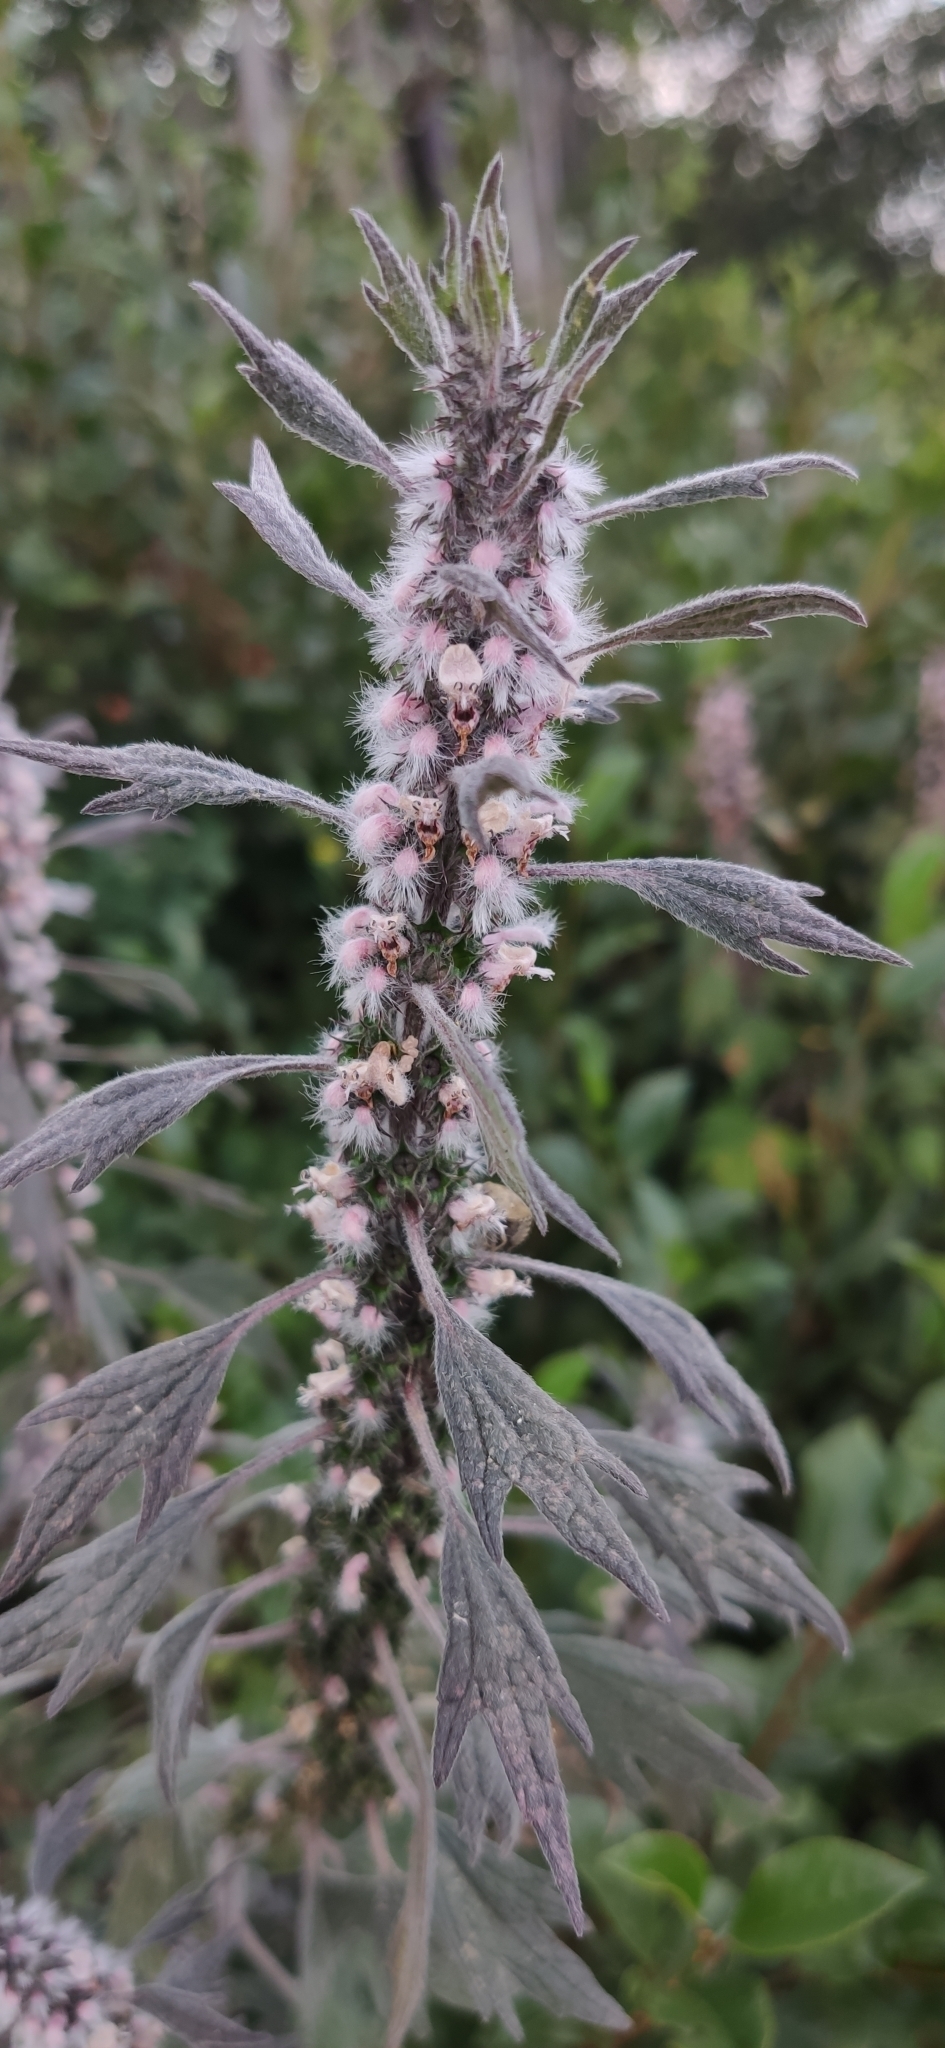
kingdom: Plantae
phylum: Tracheophyta
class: Magnoliopsida
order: Lamiales
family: Lamiaceae
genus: Leonurus
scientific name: Leonurus quinquelobatus
